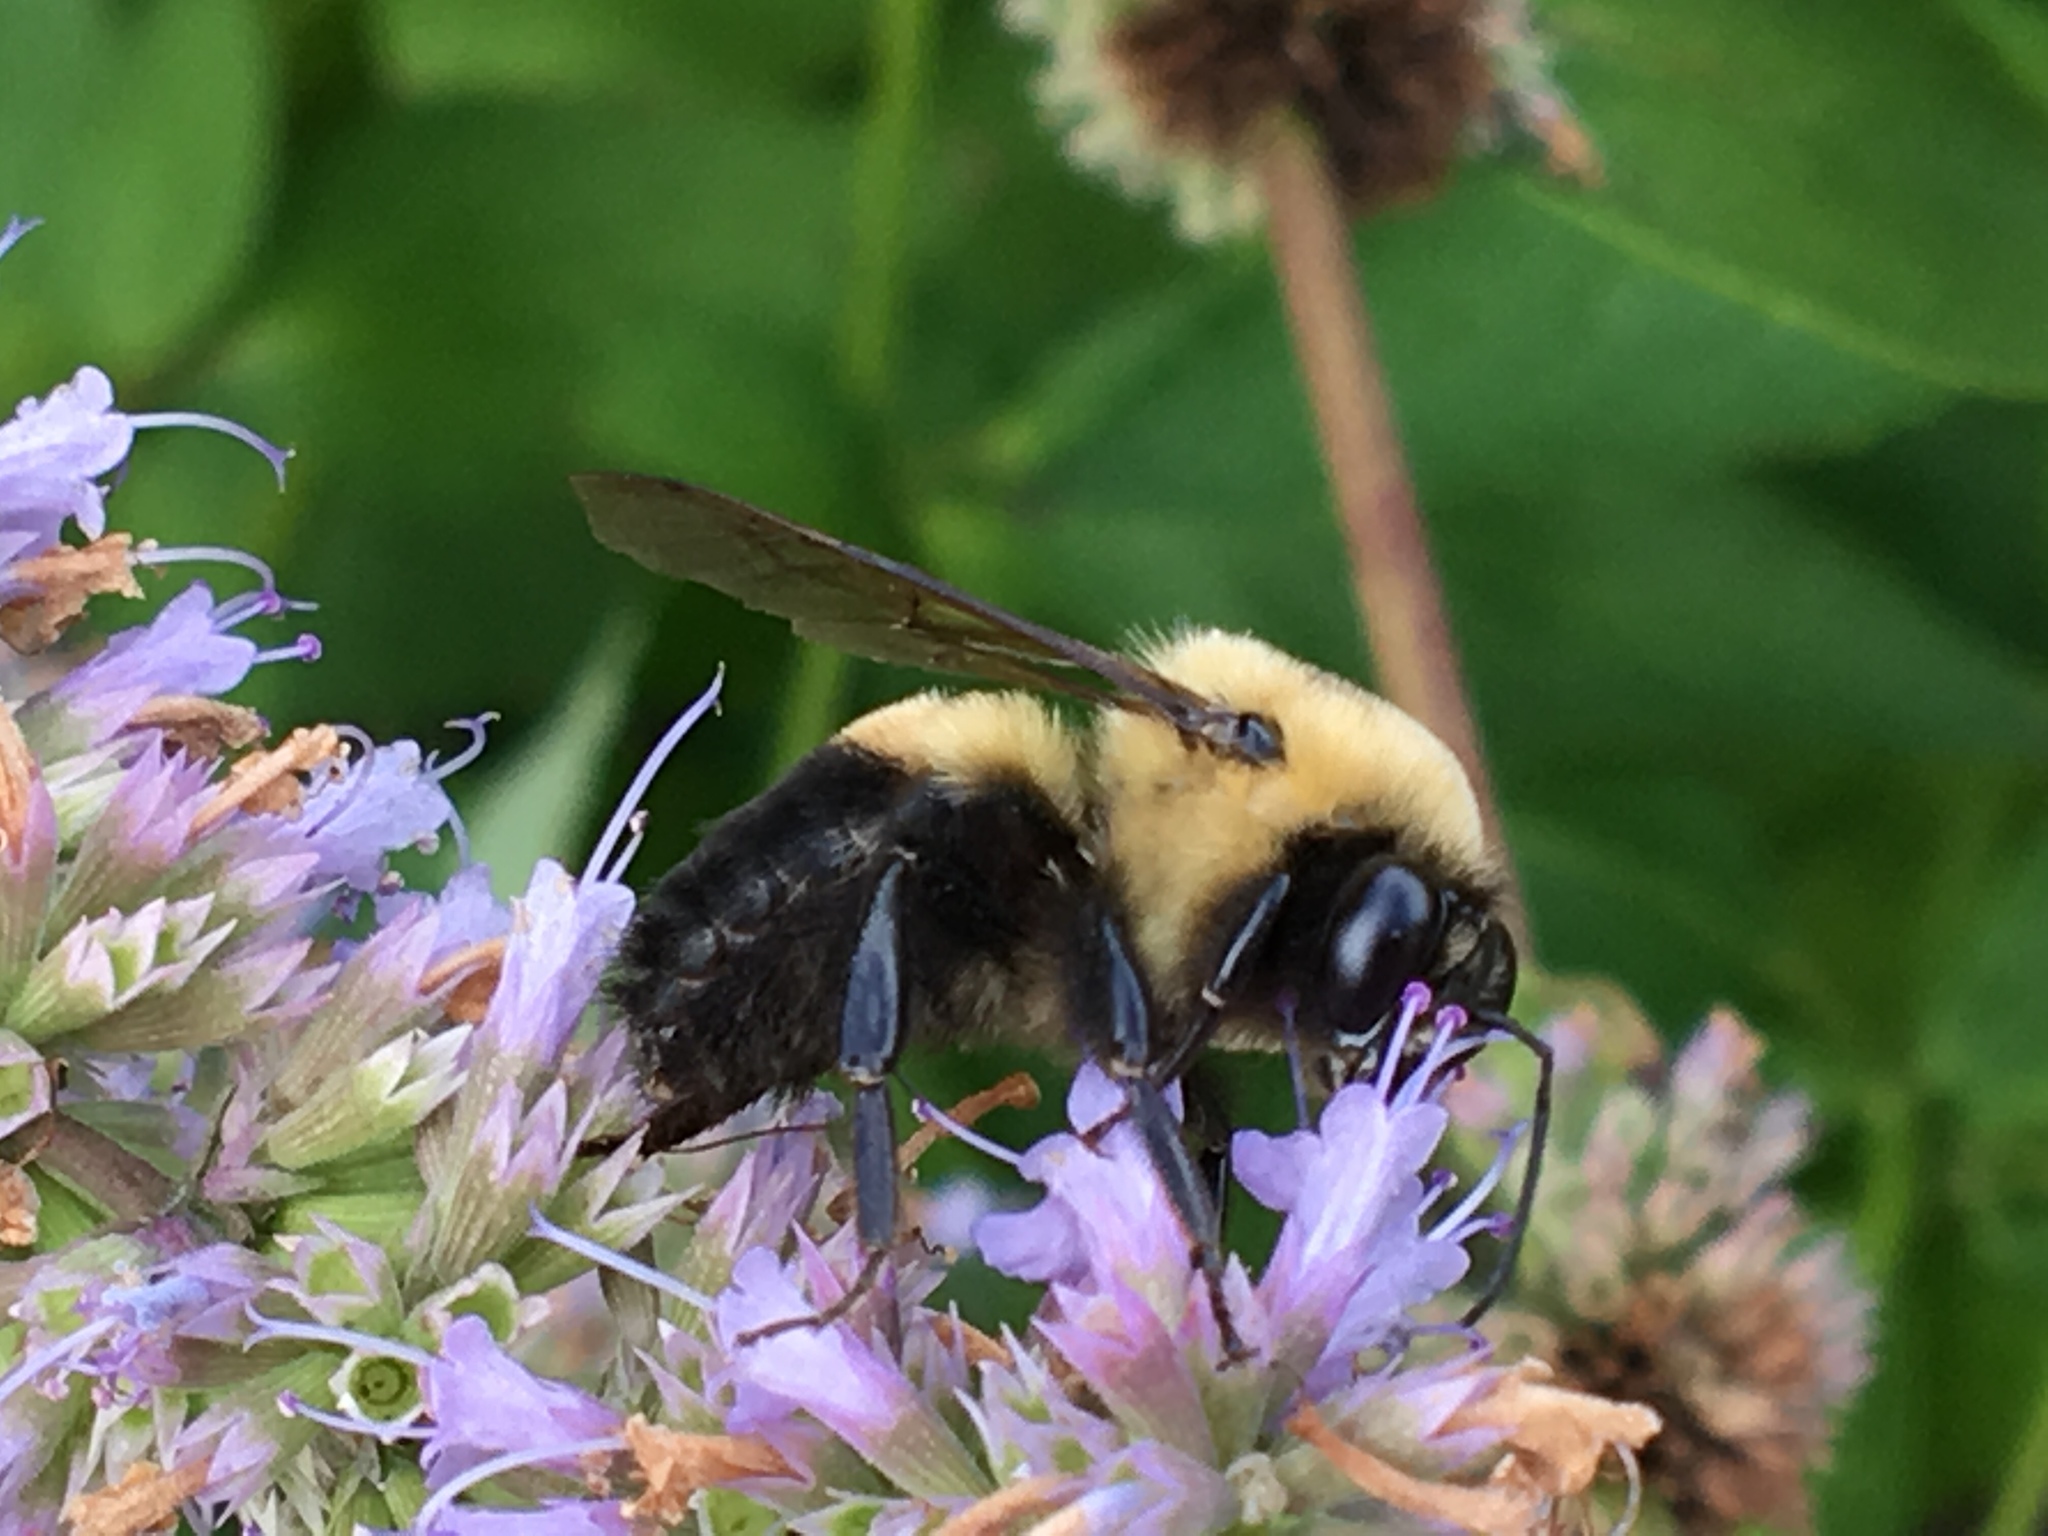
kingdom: Animalia
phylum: Arthropoda
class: Insecta
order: Hymenoptera
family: Apidae
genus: Bombus
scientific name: Bombus griseocollis
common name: Brown-belted bumble bee
